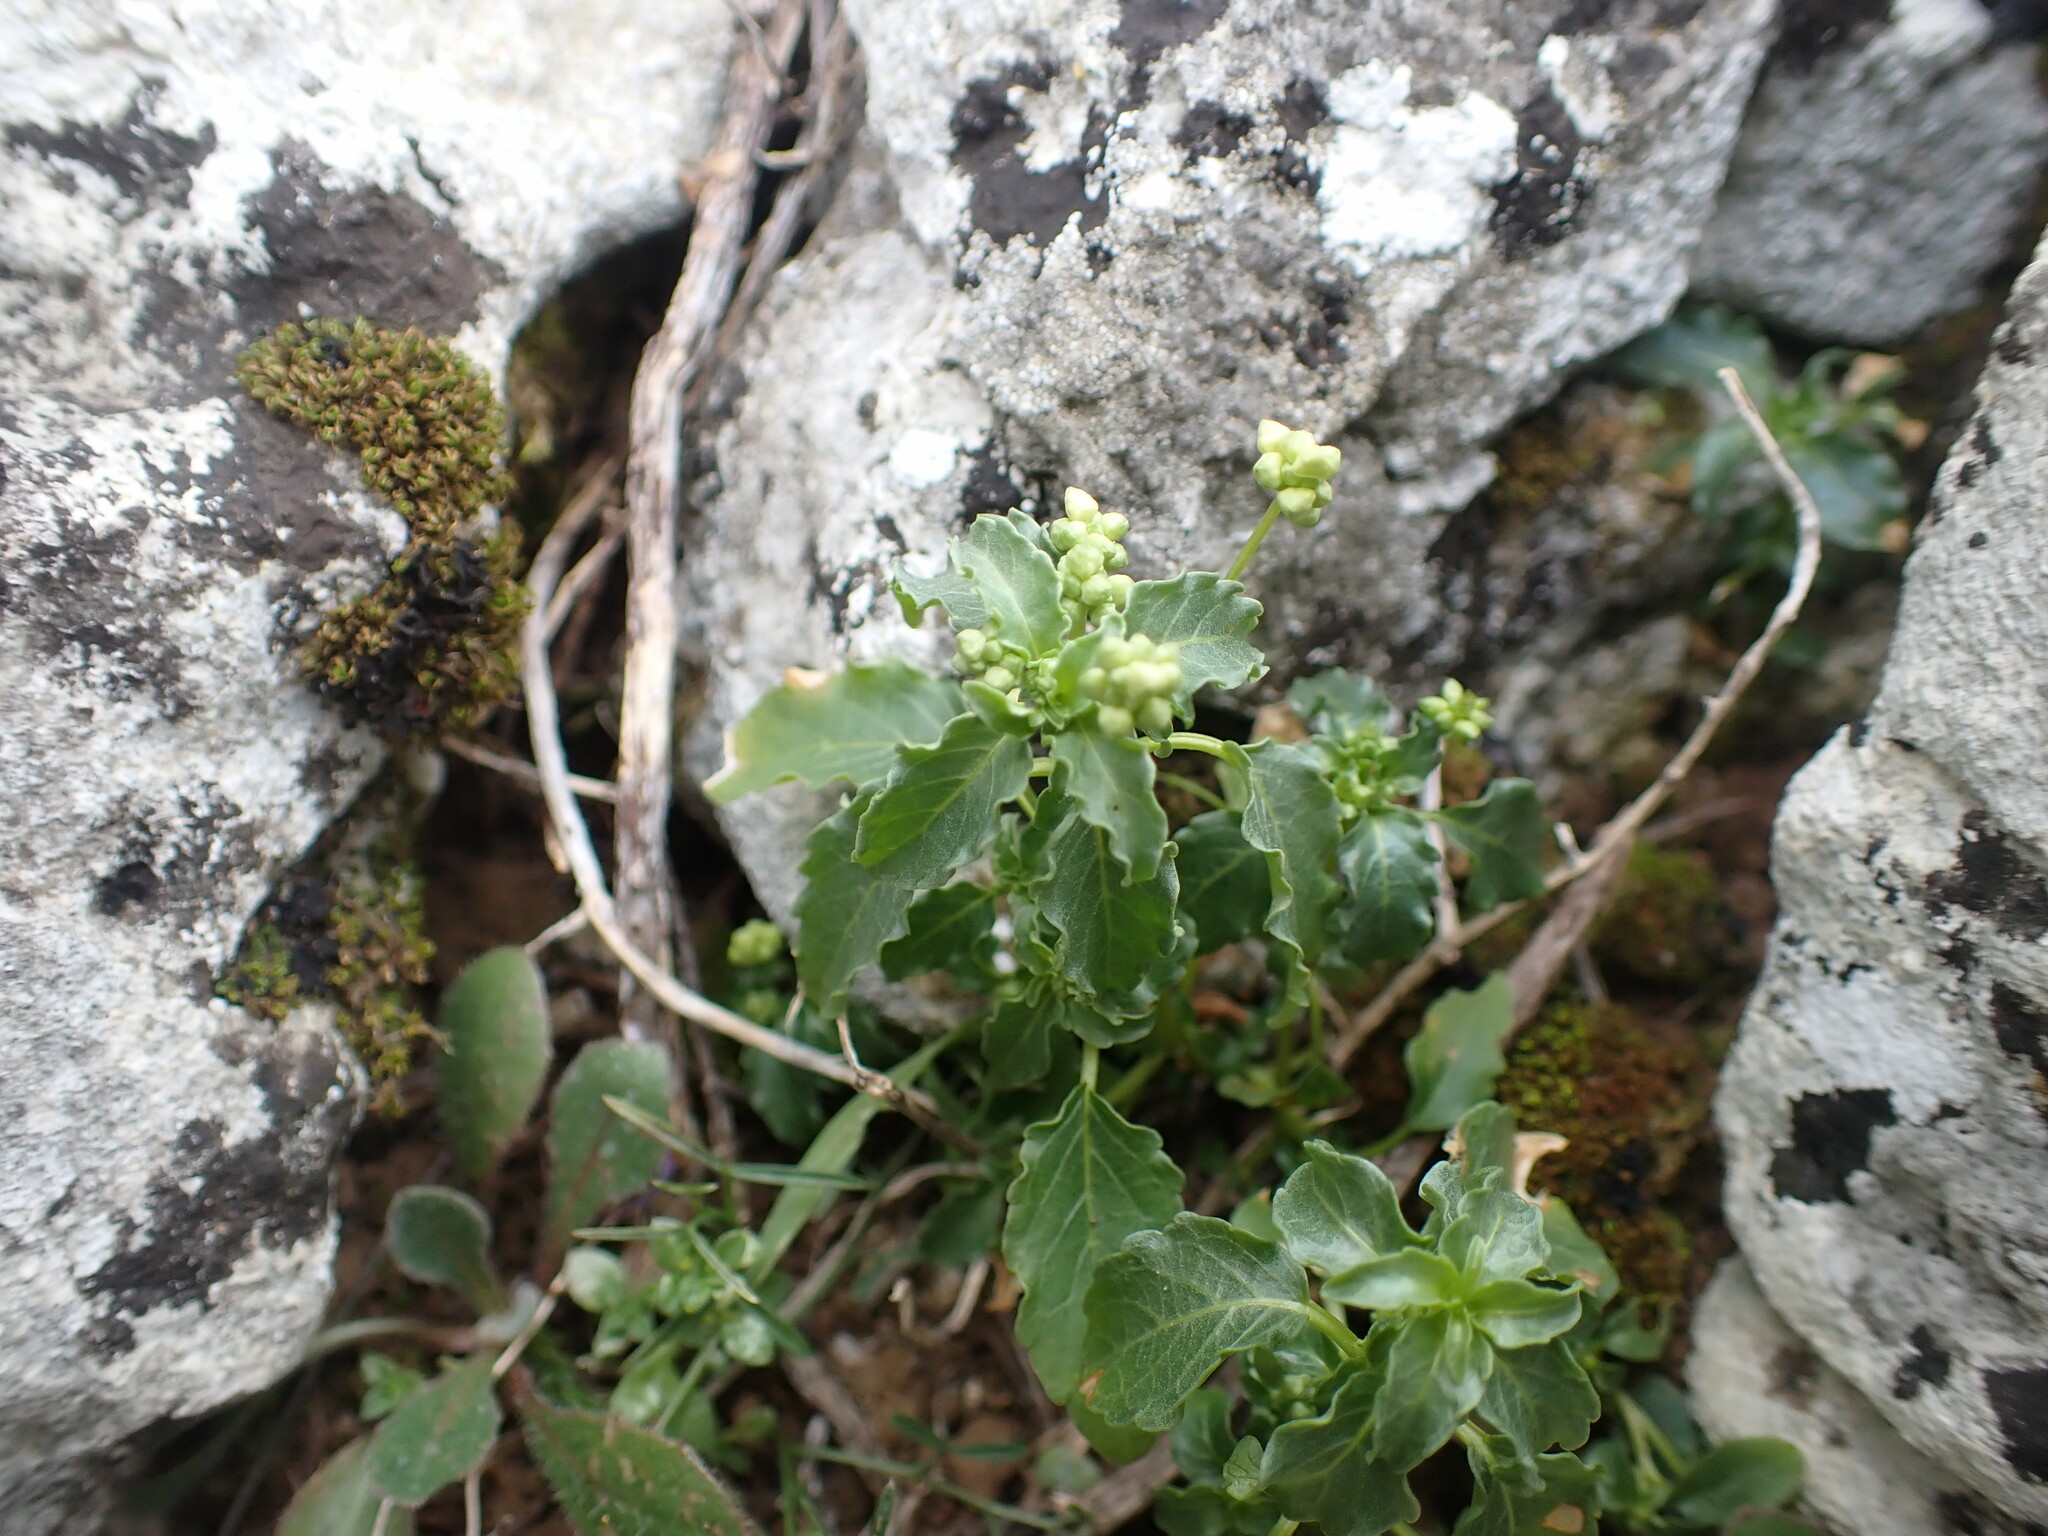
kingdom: Plantae
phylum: Tracheophyta
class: Magnoliopsida
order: Malpighiales
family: Euphorbiaceae
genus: Mercurialis
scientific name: Mercurialis annua
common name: Annual mercury
